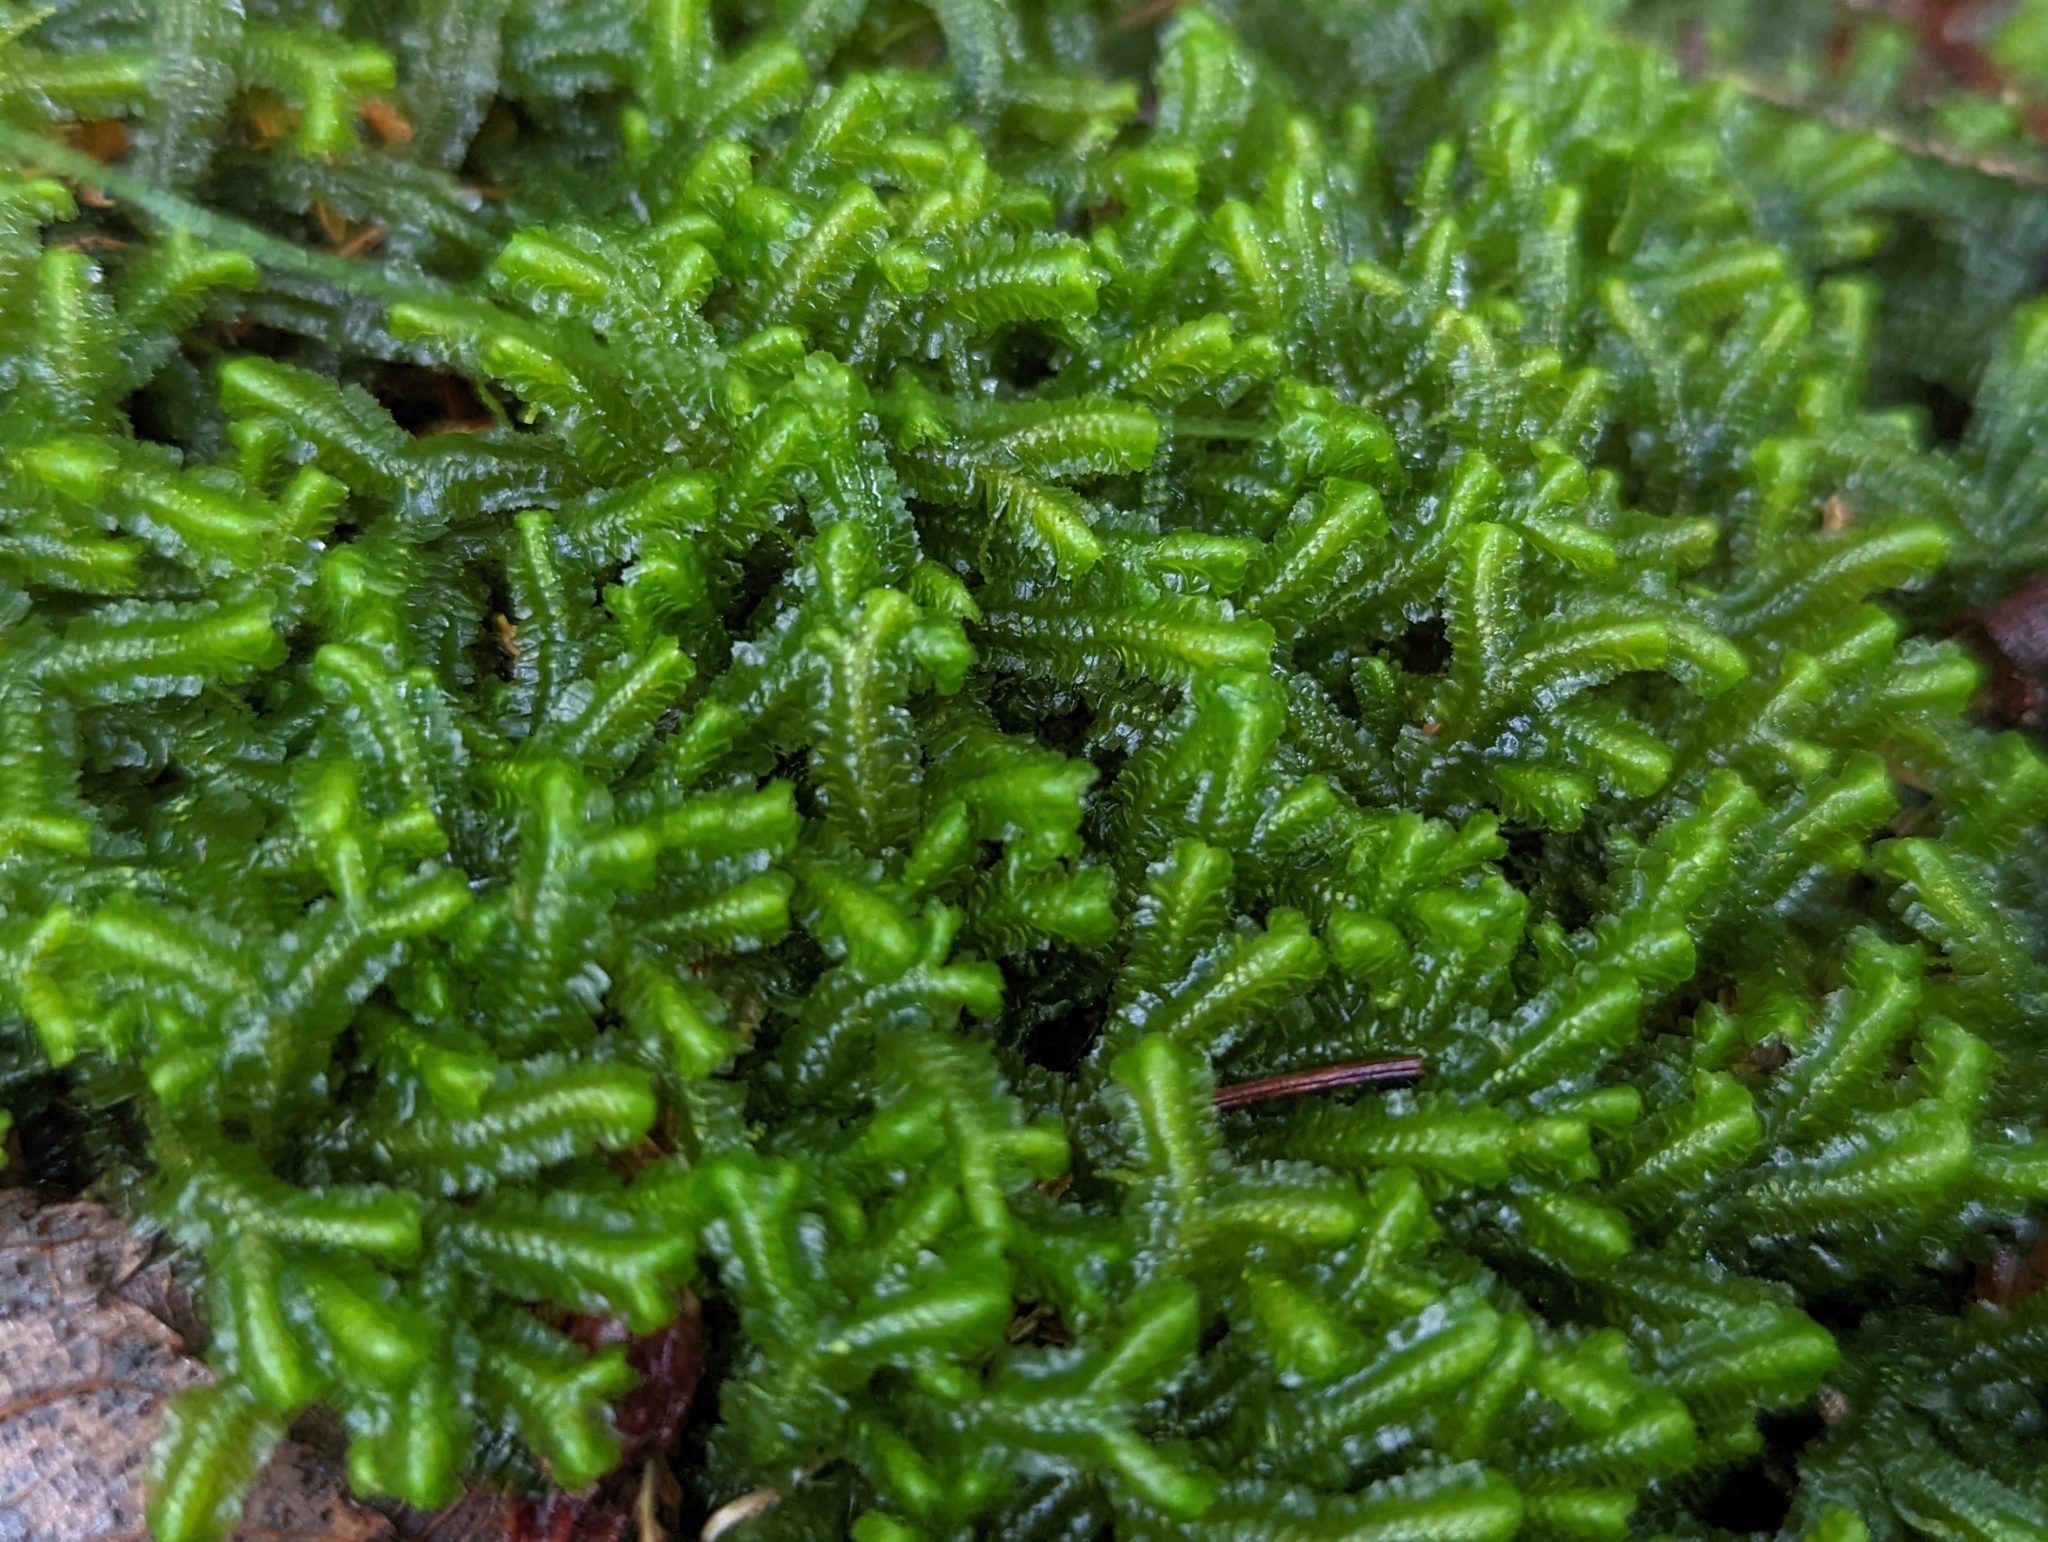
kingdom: Plantae
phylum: Marchantiophyta
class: Jungermanniopsida
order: Jungermanniales
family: Lepidoziaceae
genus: Bazzania
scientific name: Bazzania trilobata
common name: Three-lobed whipwort
